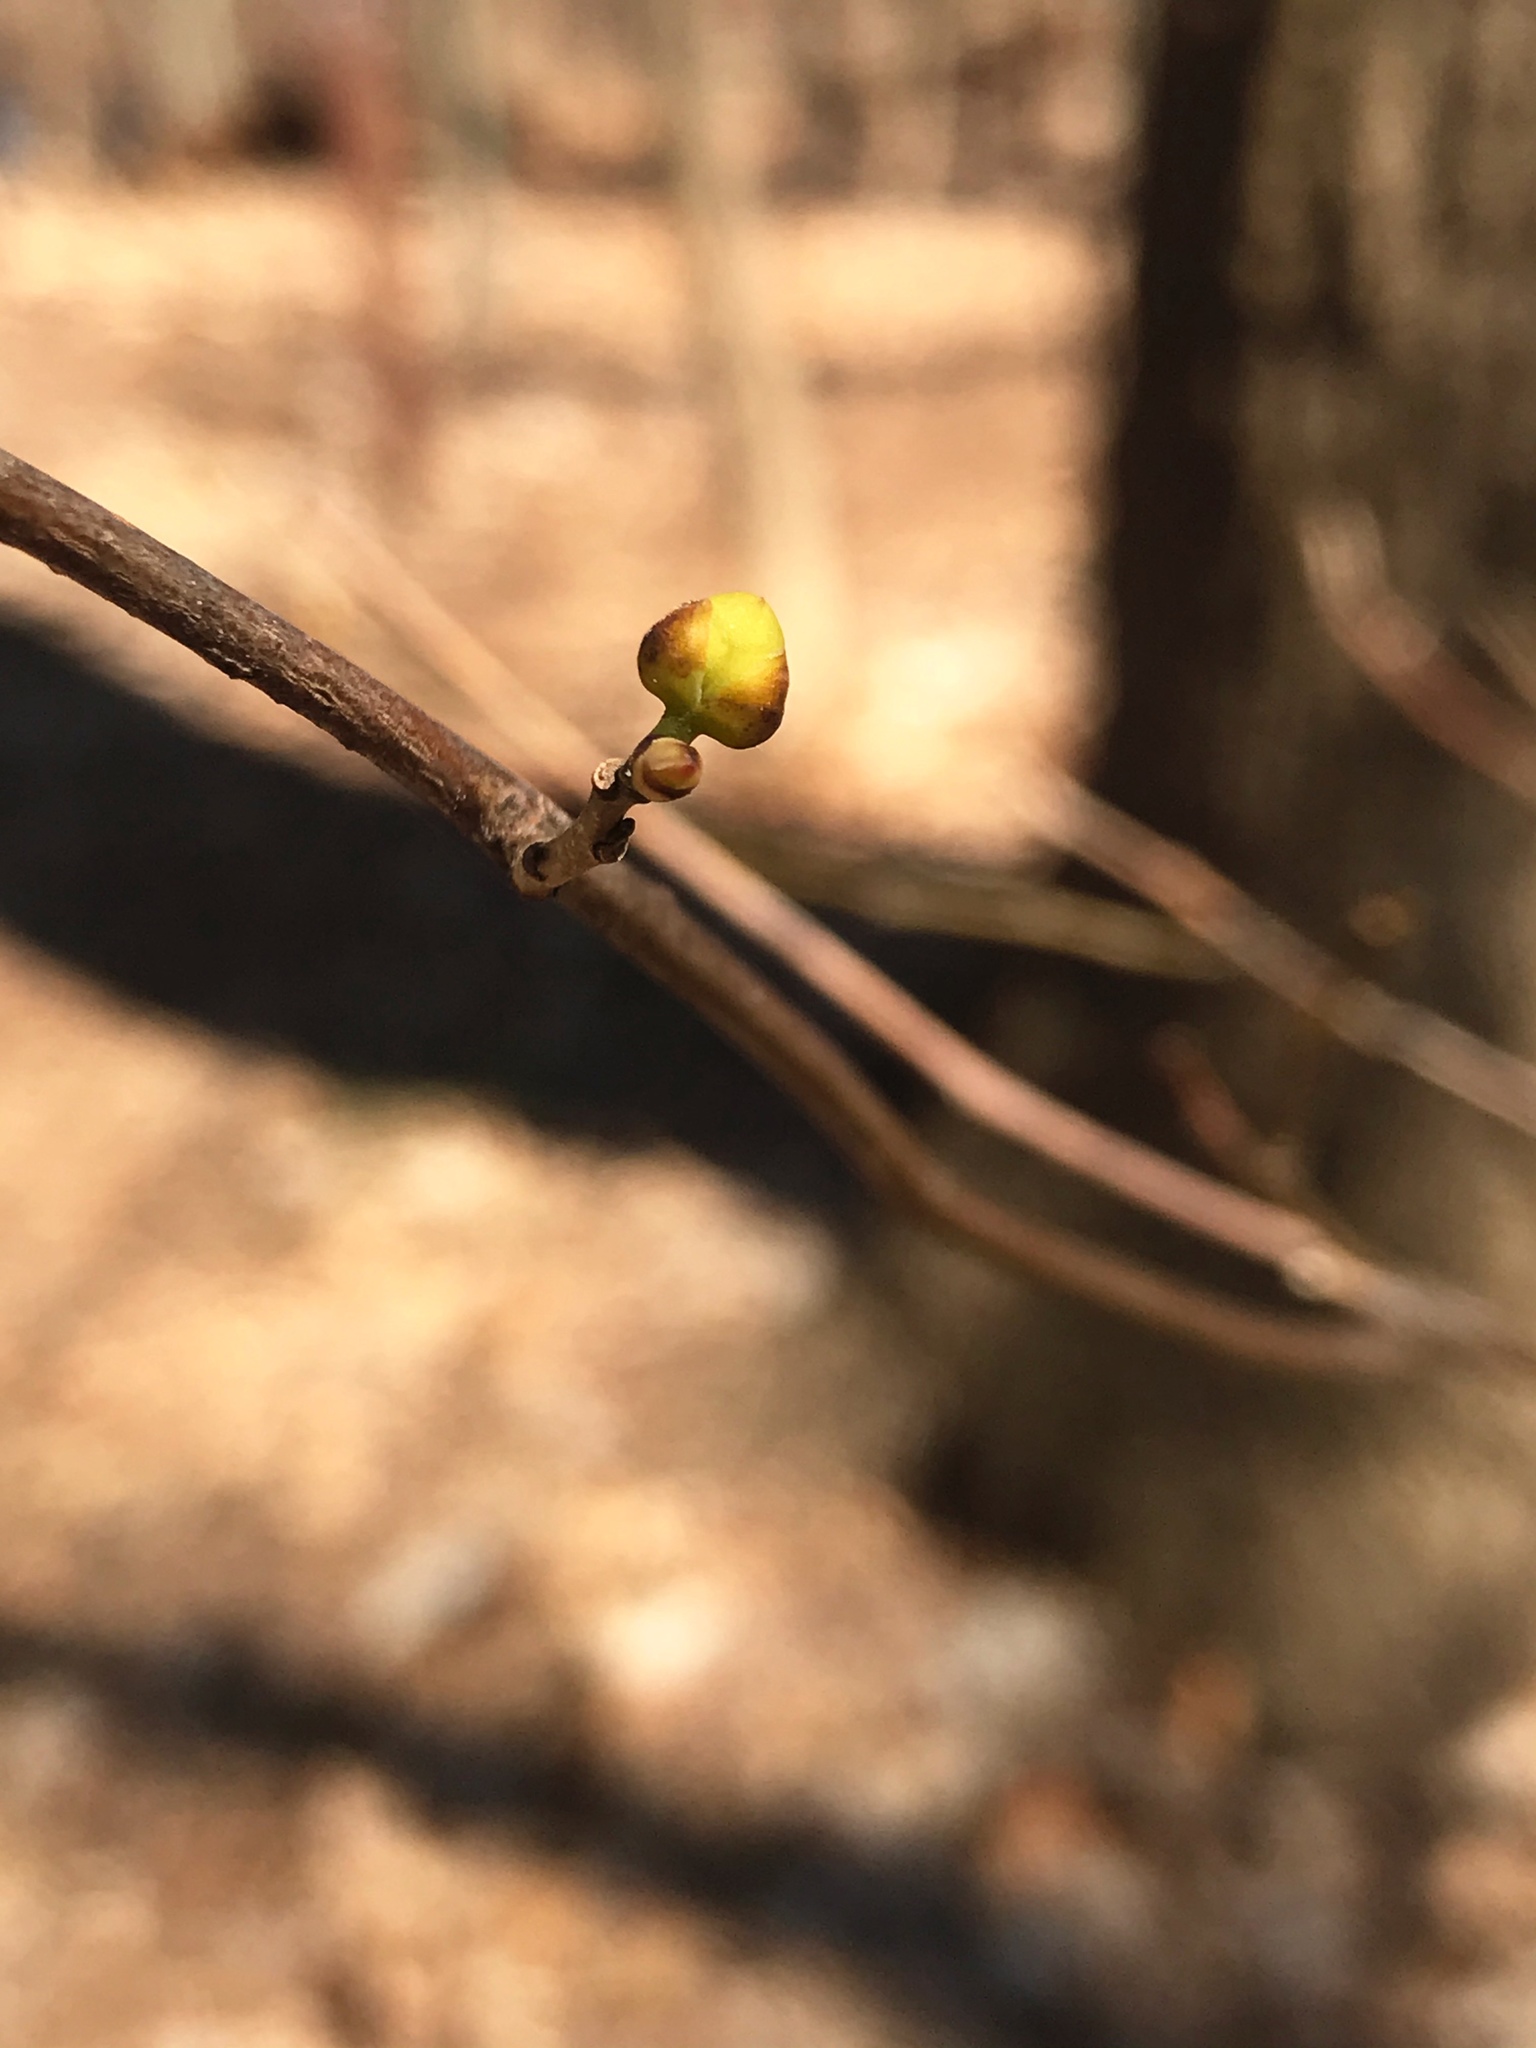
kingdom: Plantae
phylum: Tracheophyta
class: Magnoliopsida
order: Laurales
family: Lauraceae
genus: Lindera
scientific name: Lindera benzoin
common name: Spicebush
